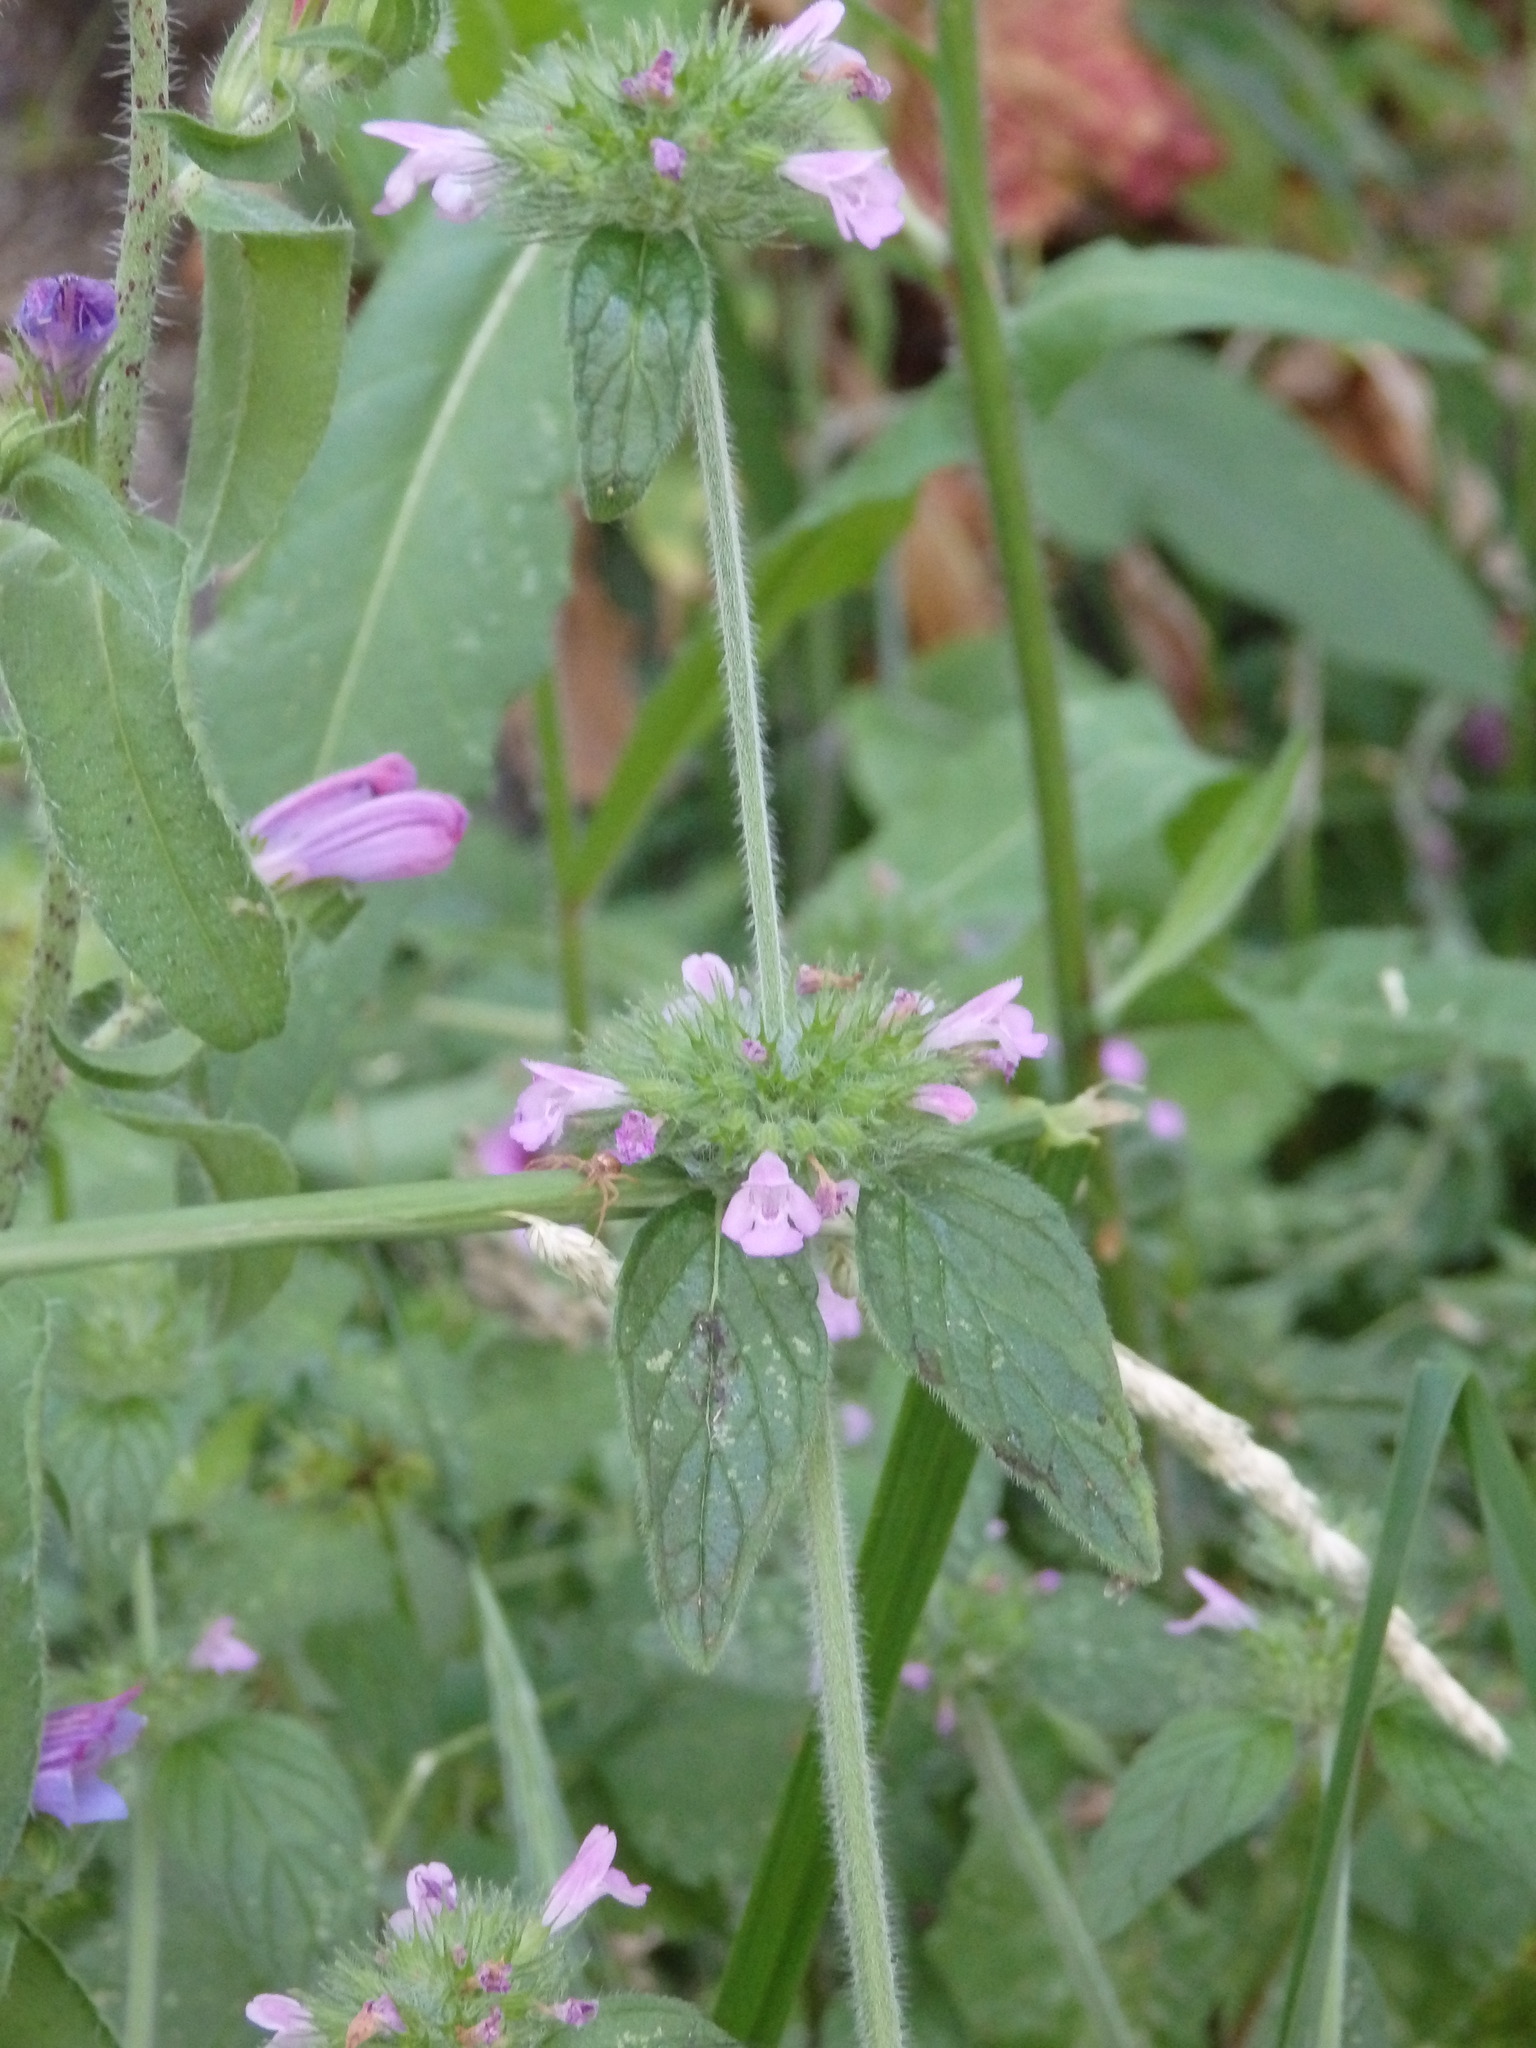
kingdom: Plantae
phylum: Tracheophyta
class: Magnoliopsida
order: Lamiales
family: Lamiaceae
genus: Clinopodium
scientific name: Clinopodium vulgare
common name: Wild basil
